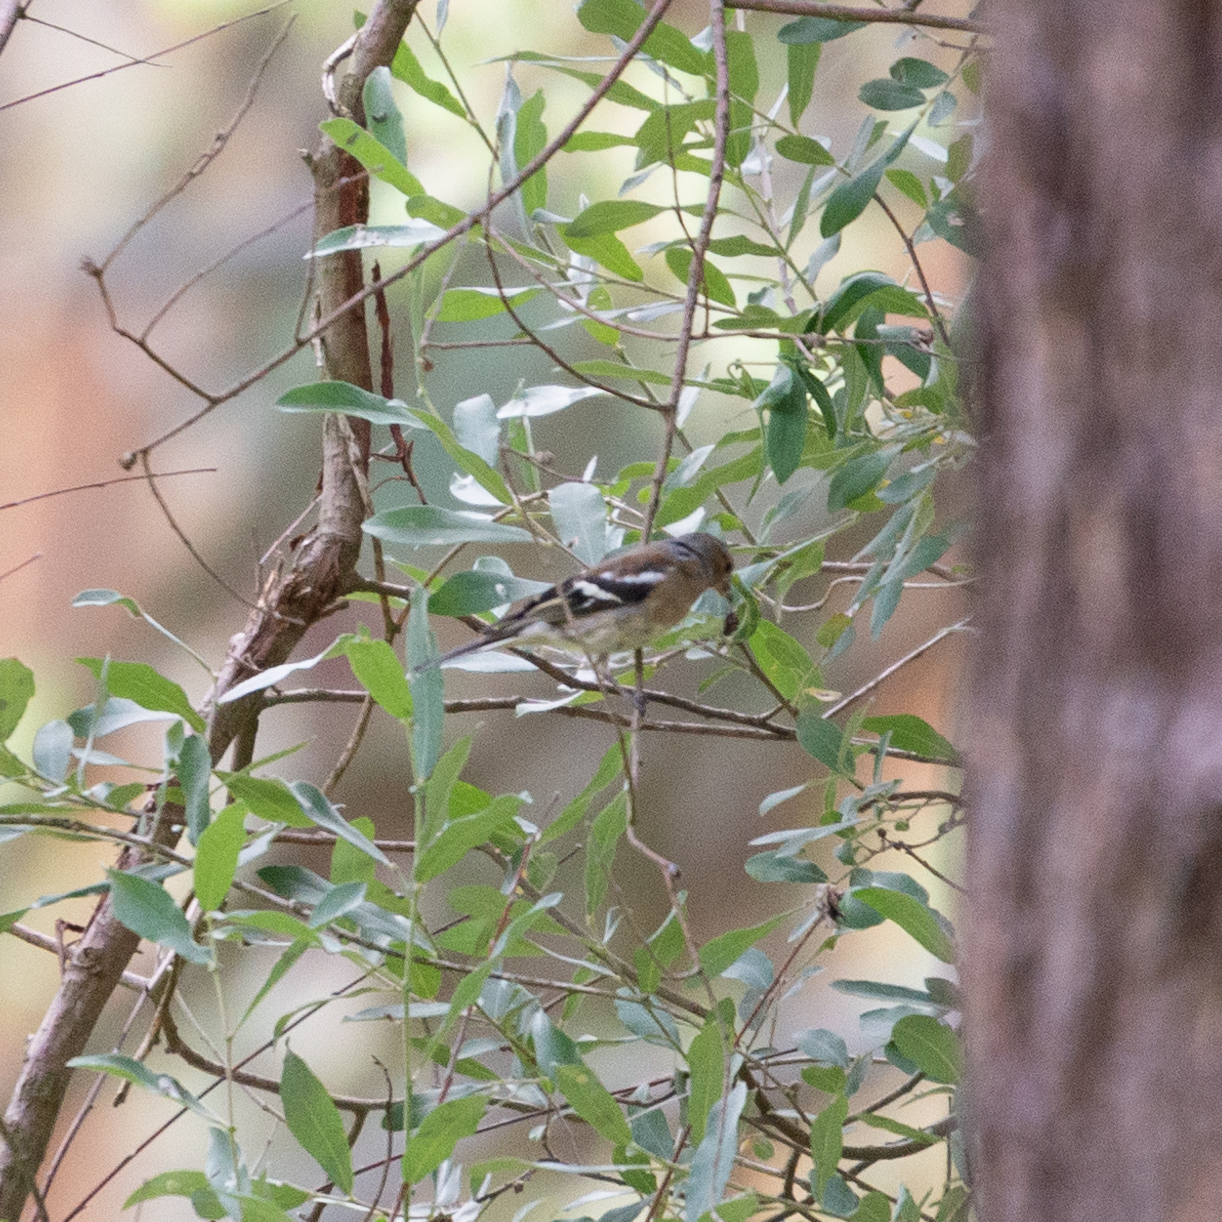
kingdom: Animalia
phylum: Chordata
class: Aves
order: Passeriformes
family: Fringillidae
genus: Fringilla
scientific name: Fringilla coelebs
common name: Common chaffinch
